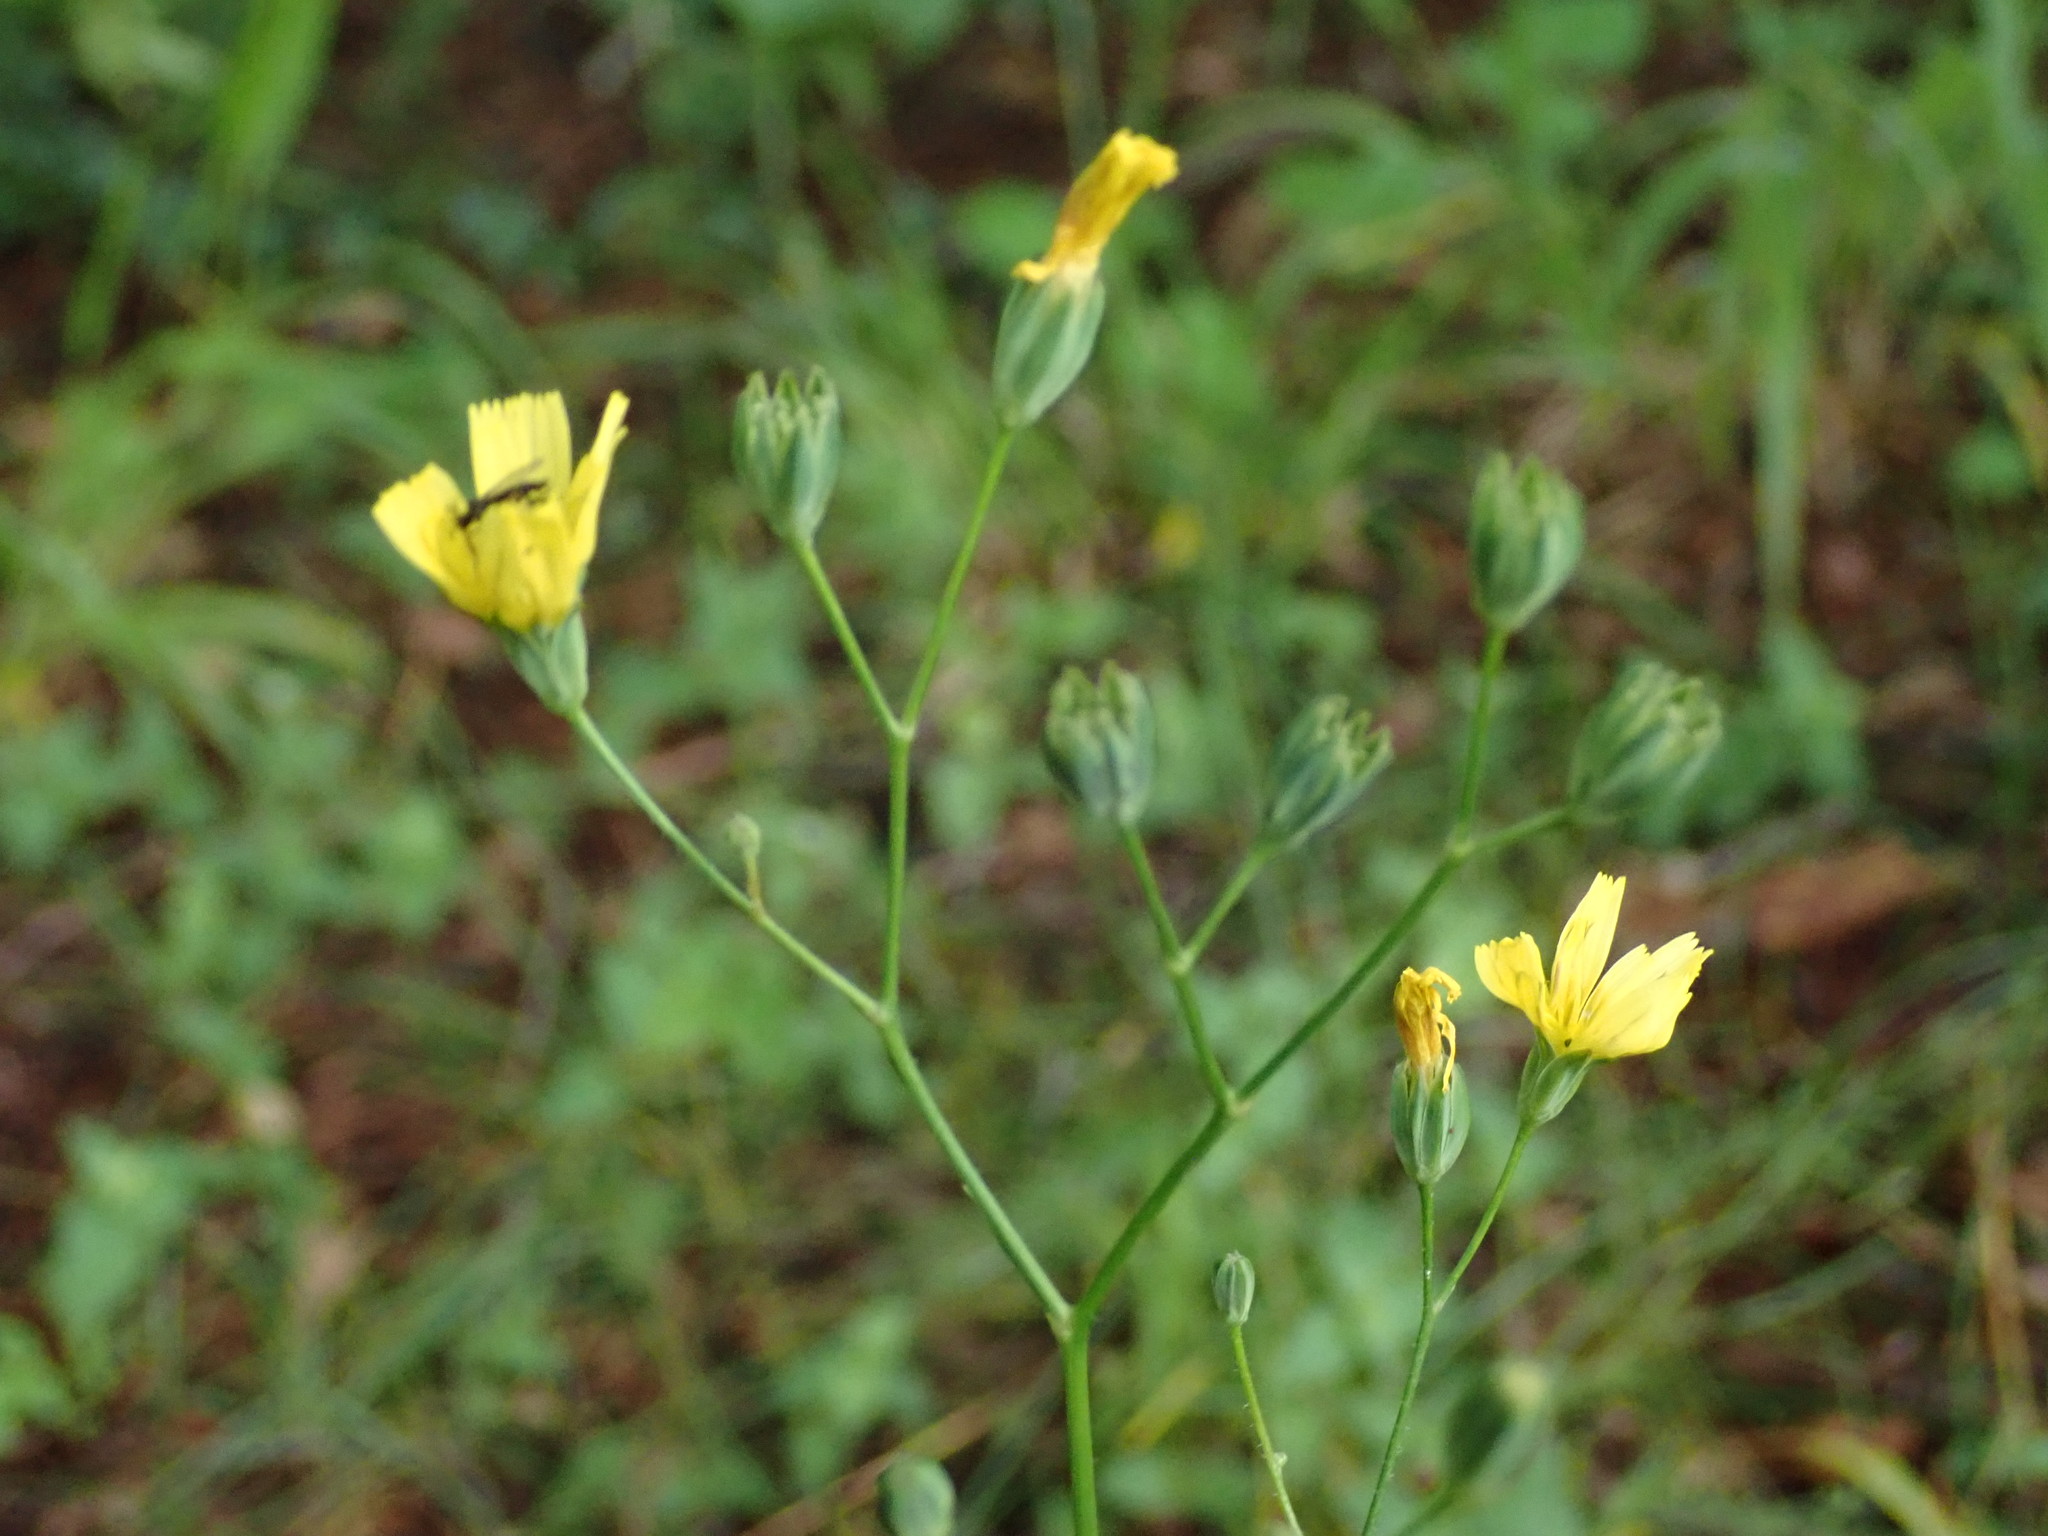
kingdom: Plantae
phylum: Tracheophyta
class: Magnoliopsida
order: Asterales
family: Asteraceae
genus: Lapsana
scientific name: Lapsana communis
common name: Nipplewort
